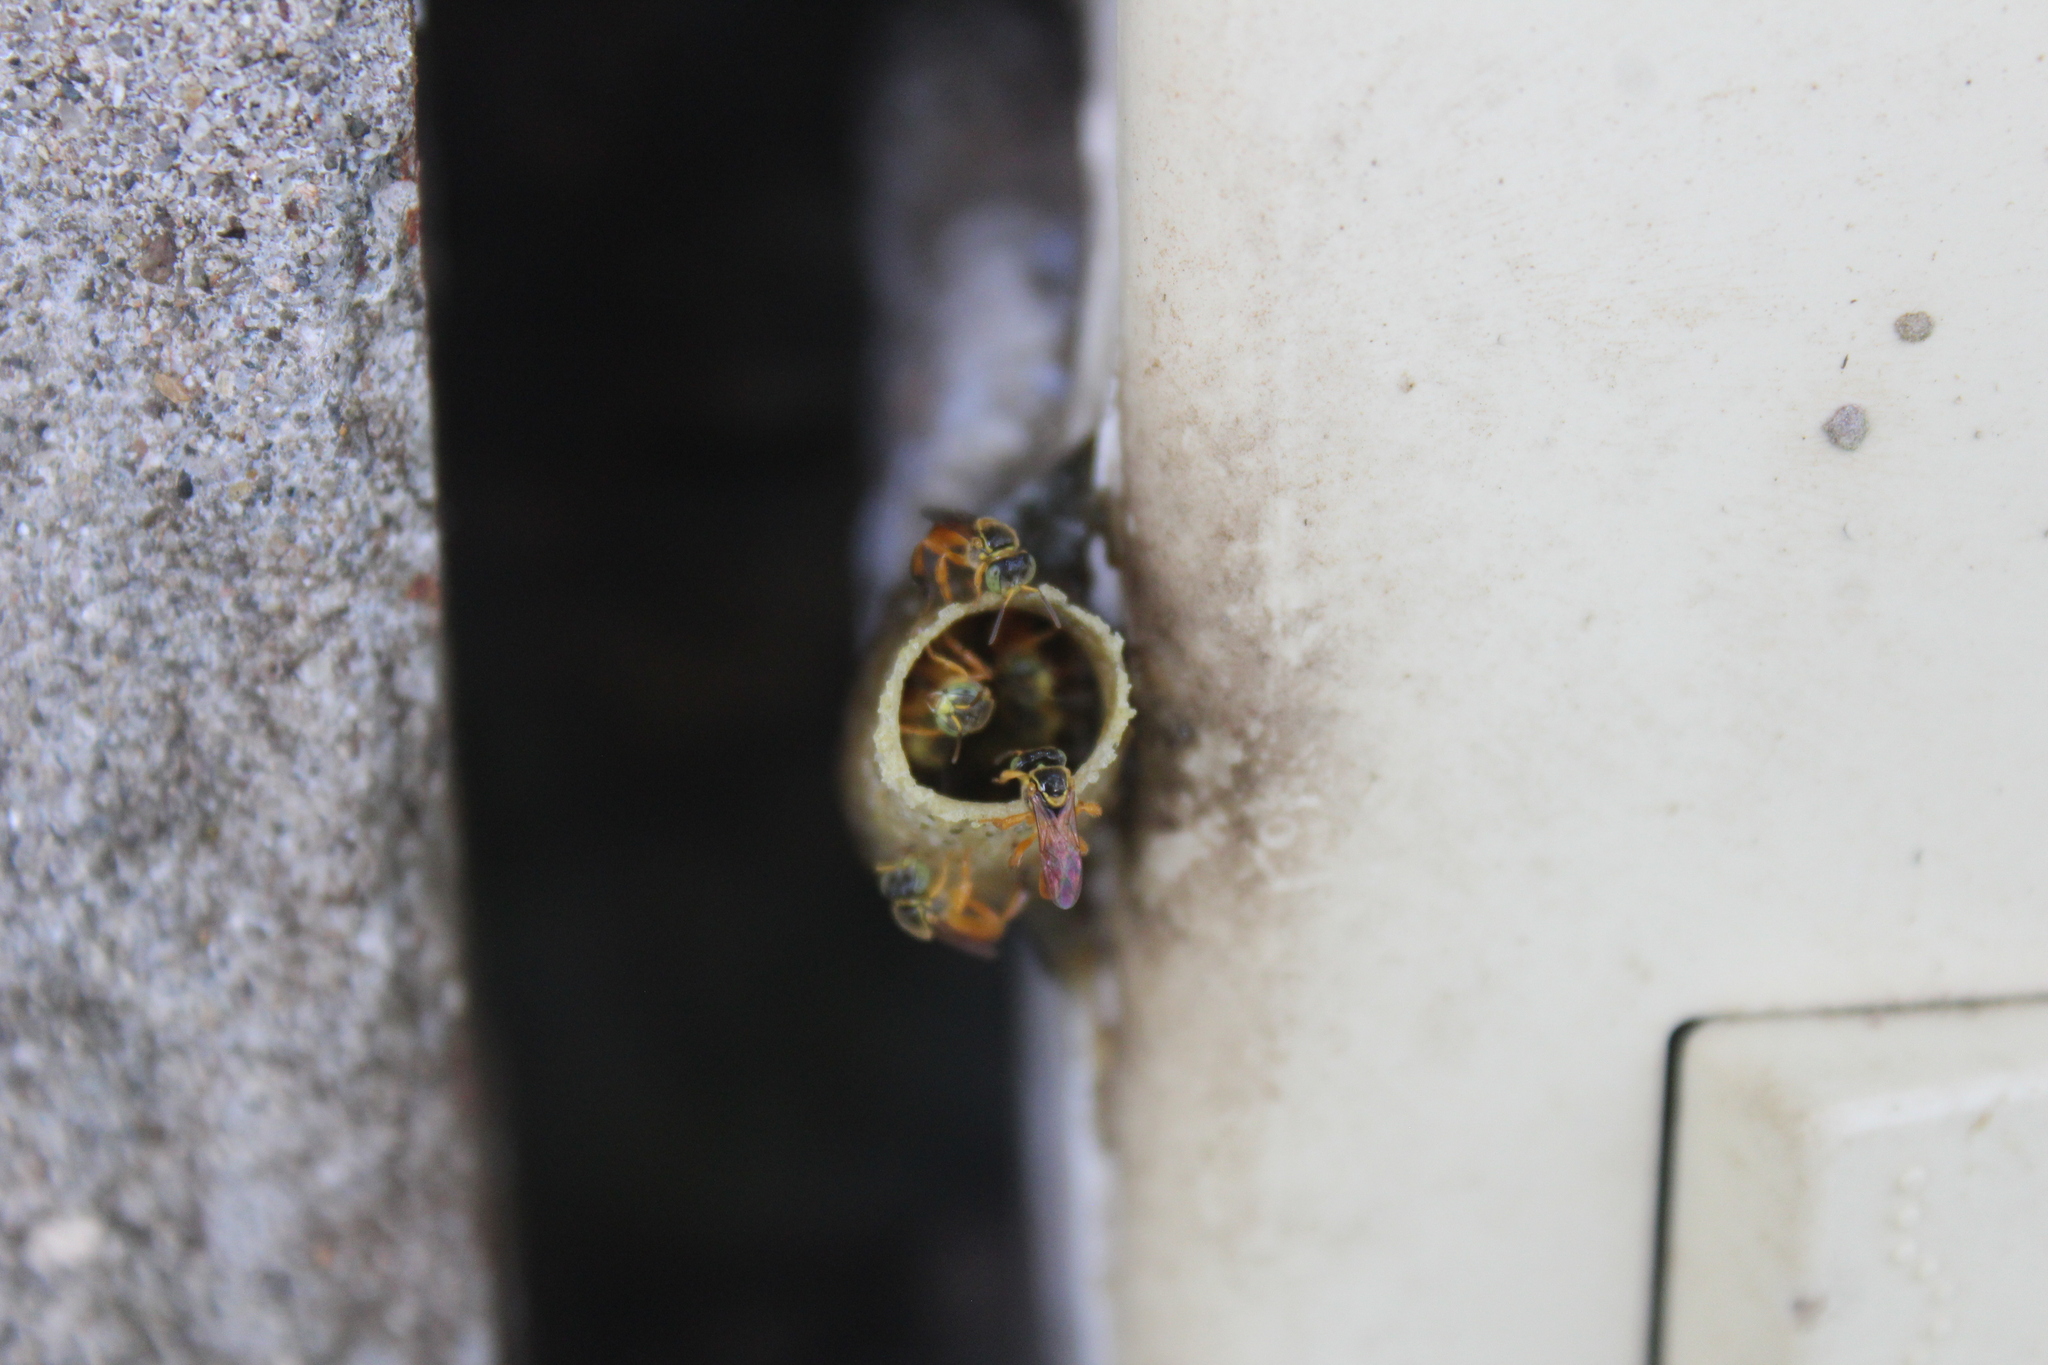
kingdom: Animalia
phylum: Arthropoda
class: Insecta
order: Hymenoptera
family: Apidae
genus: Tetragonisca
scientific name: Tetragonisca angustula
